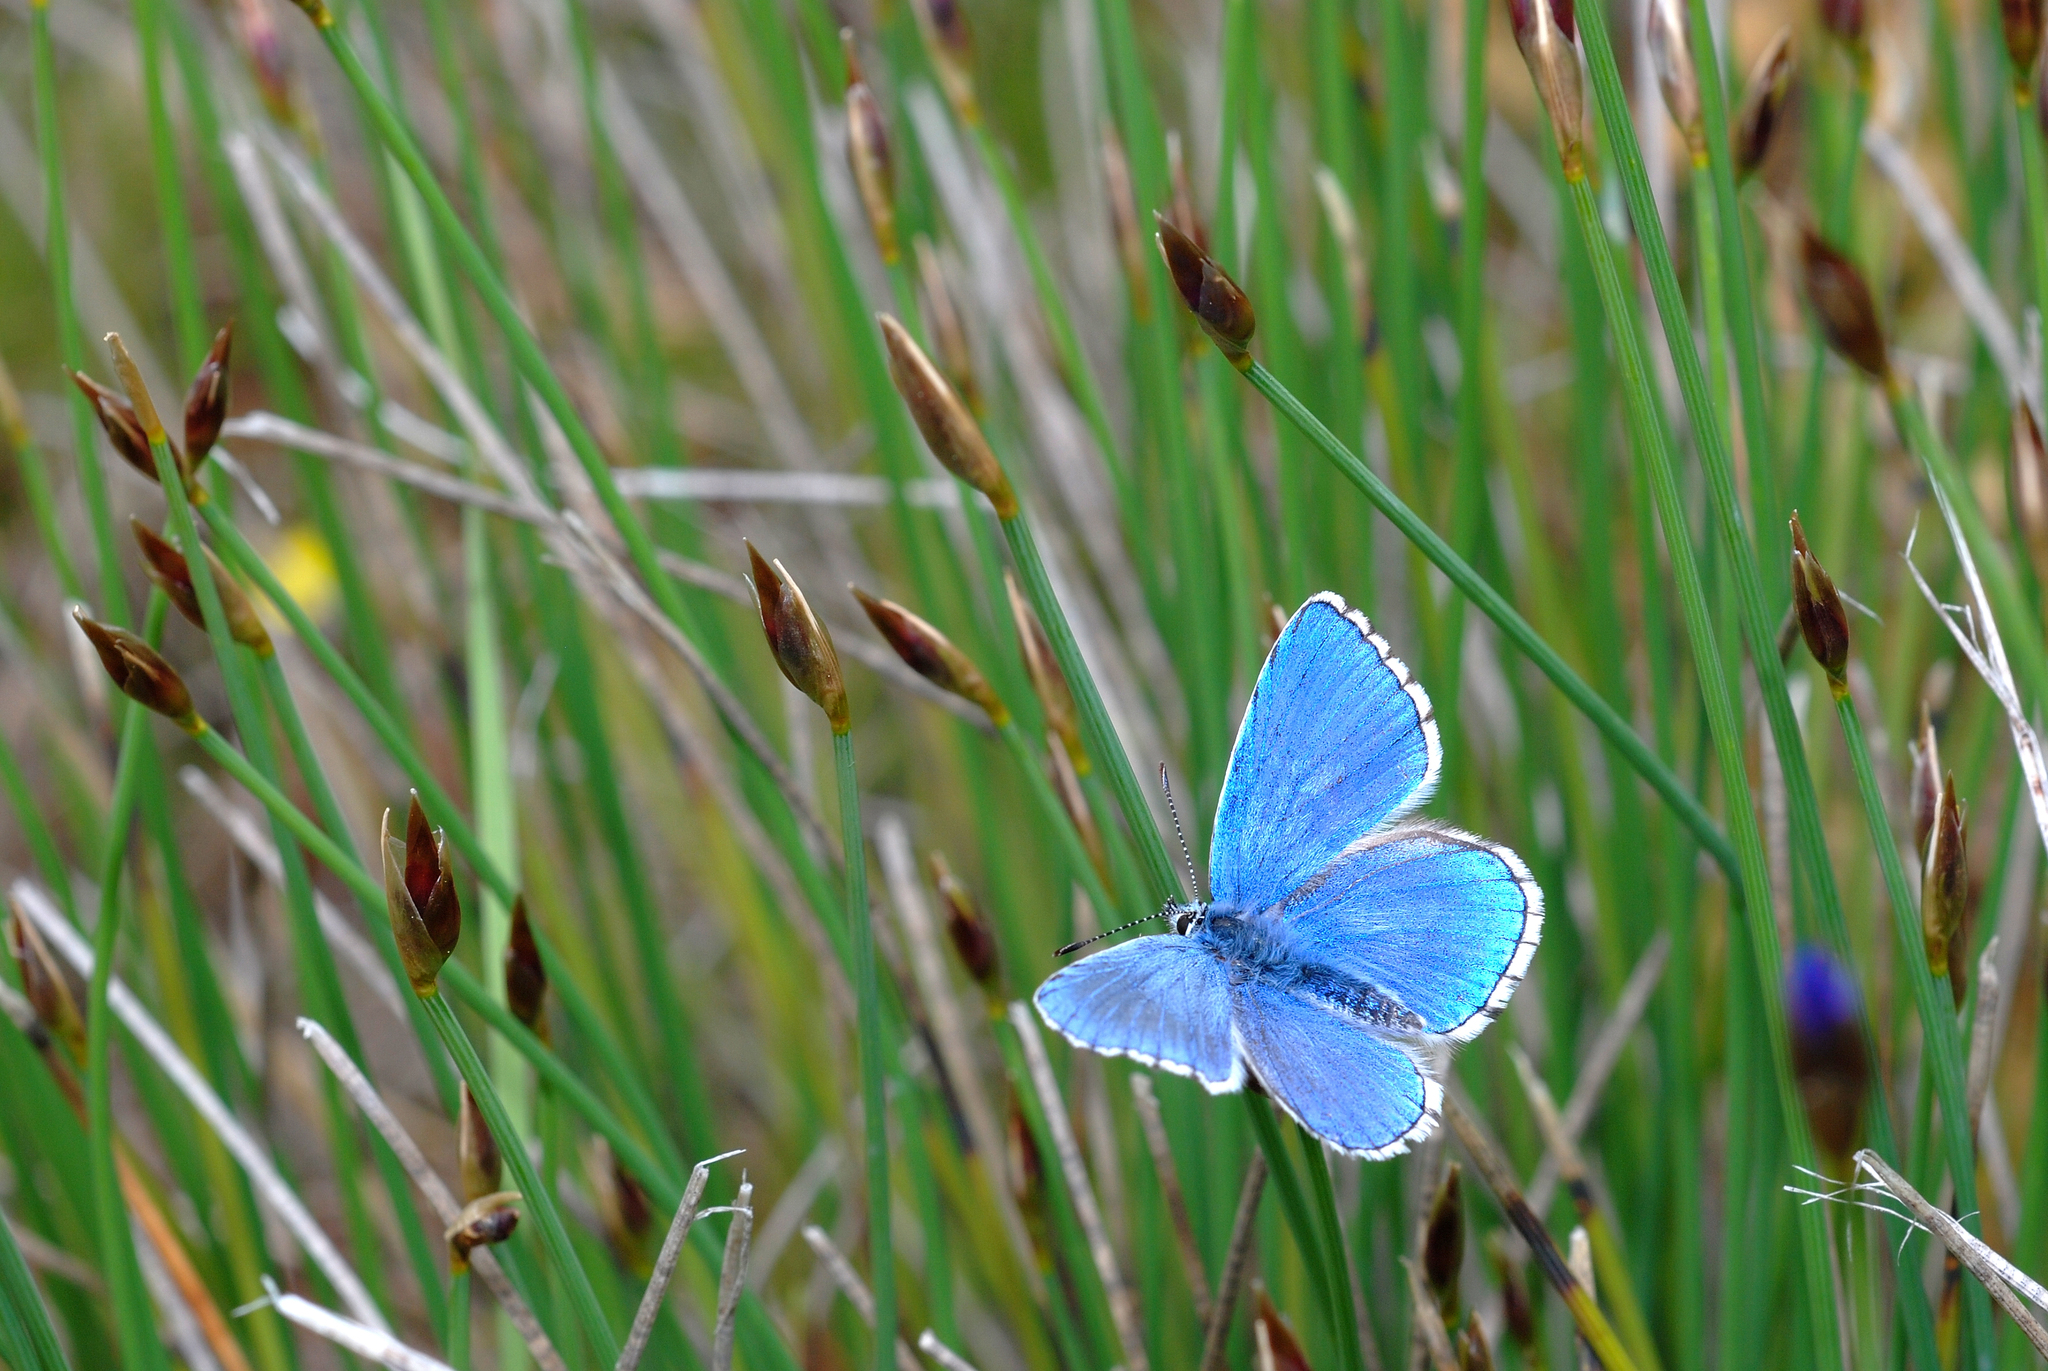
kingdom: Animalia
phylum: Arthropoda
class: Insecta
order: Lepidoptera
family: Lycaenidae
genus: Lysandra
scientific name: Lysandra bellargus
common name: Adonis blue
